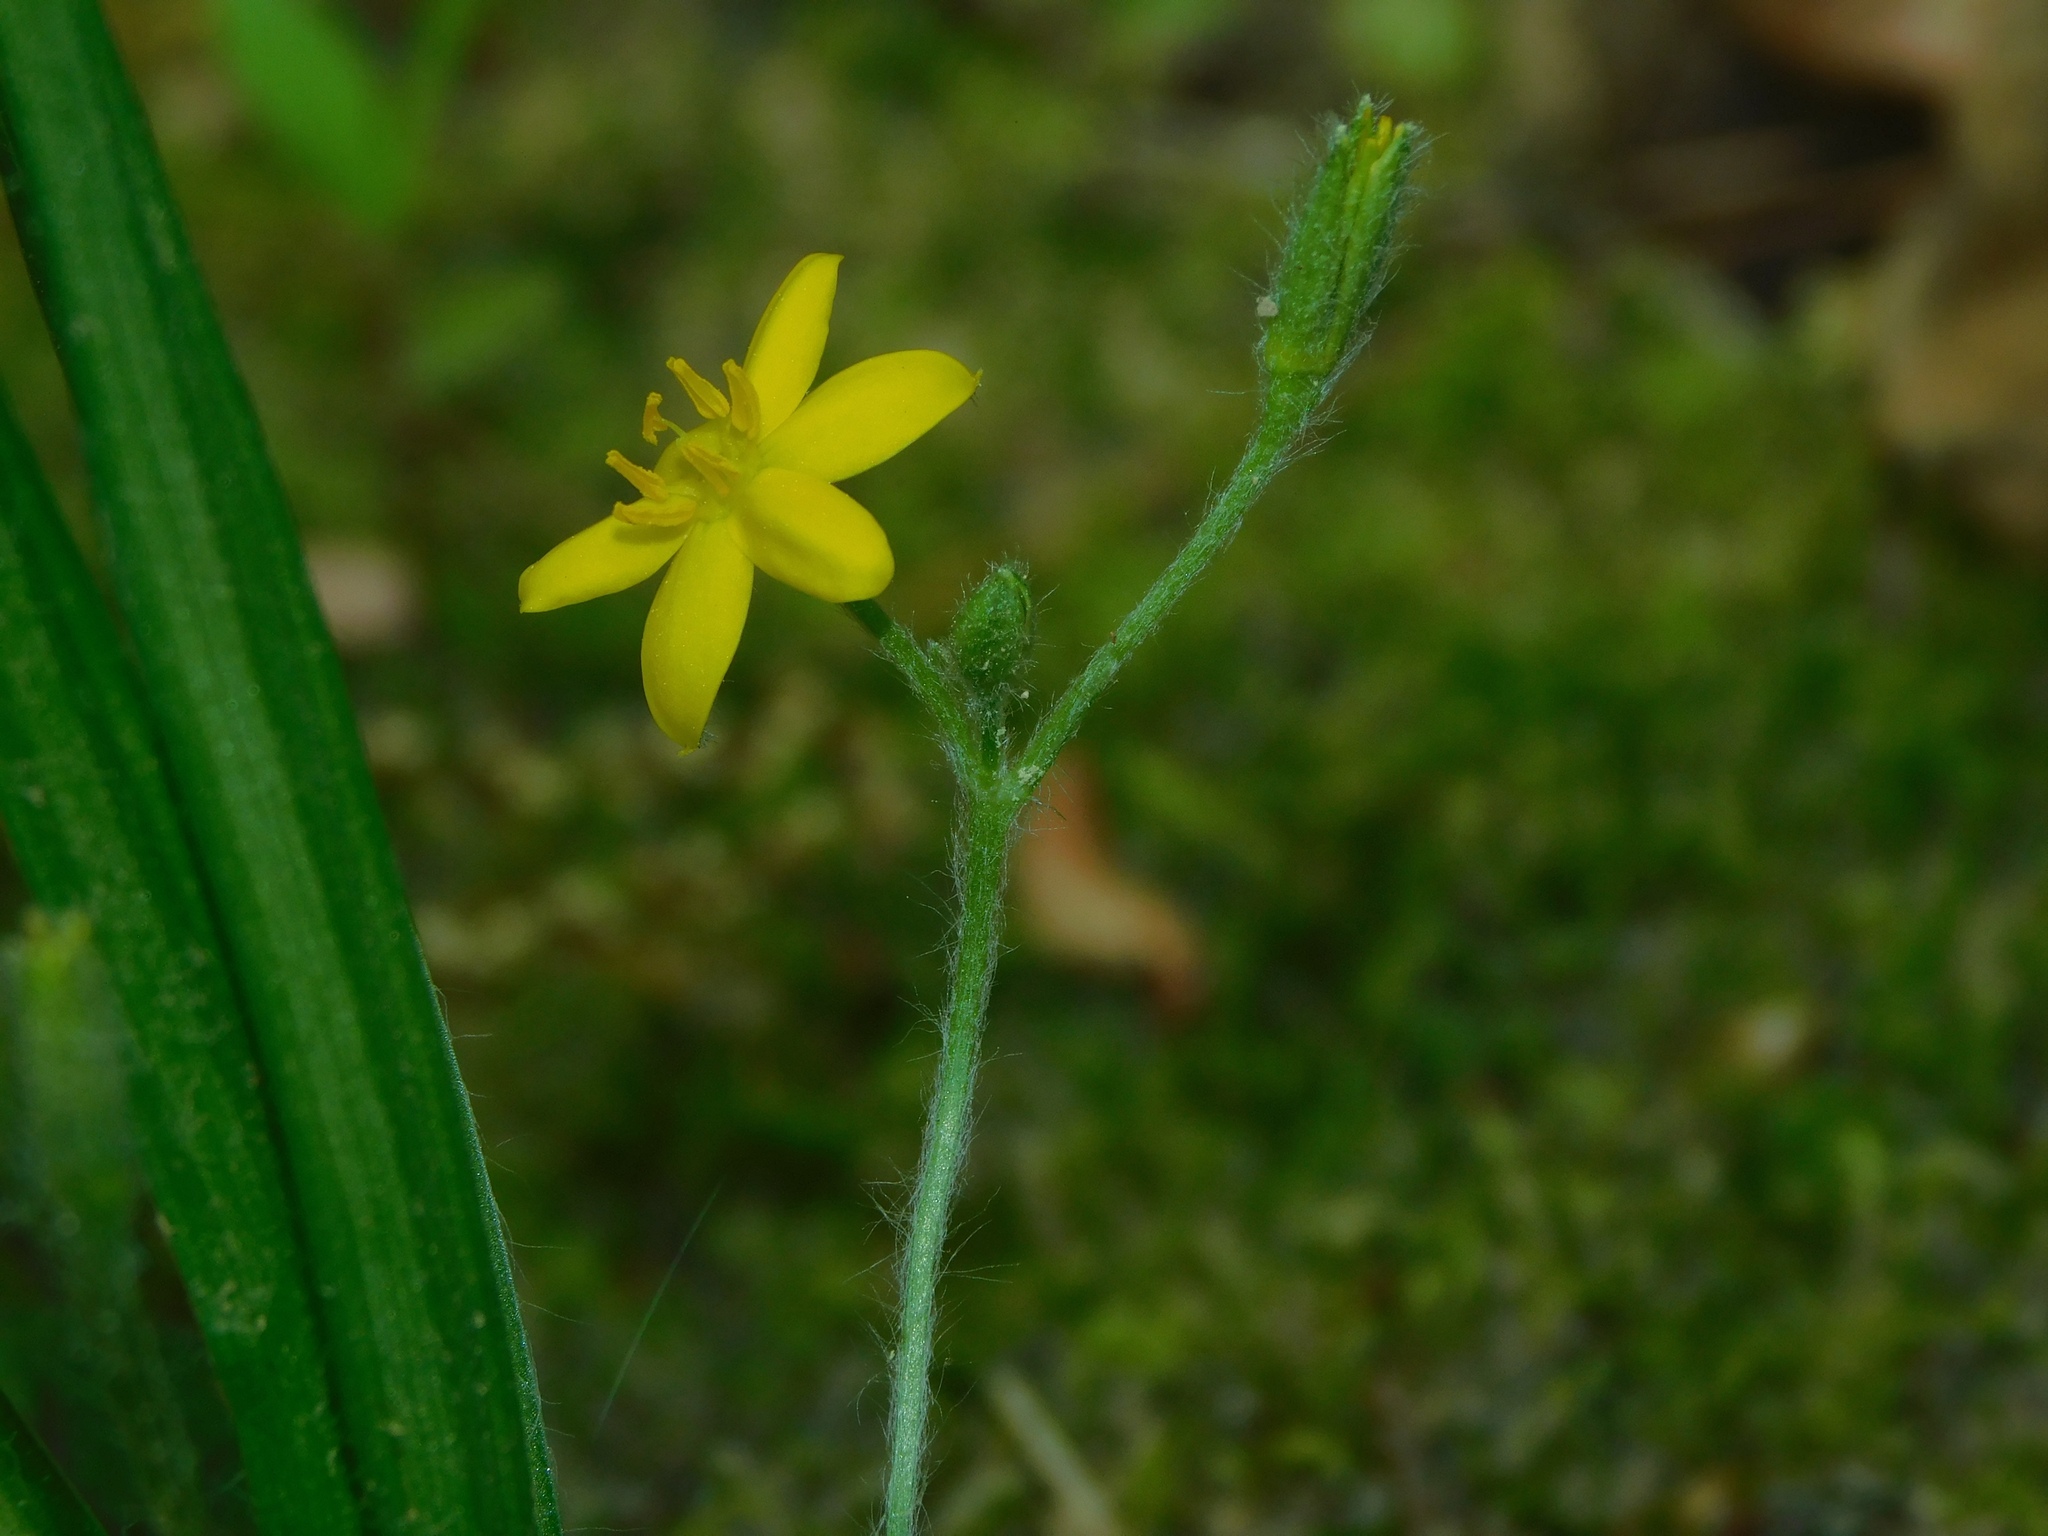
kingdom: Plantae
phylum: Tracheophyta
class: Liliopsida
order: Asparagales
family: Hypoxidaceae
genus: Hypoxis
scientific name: Hypoxis hirsuta
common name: Common goldstar
